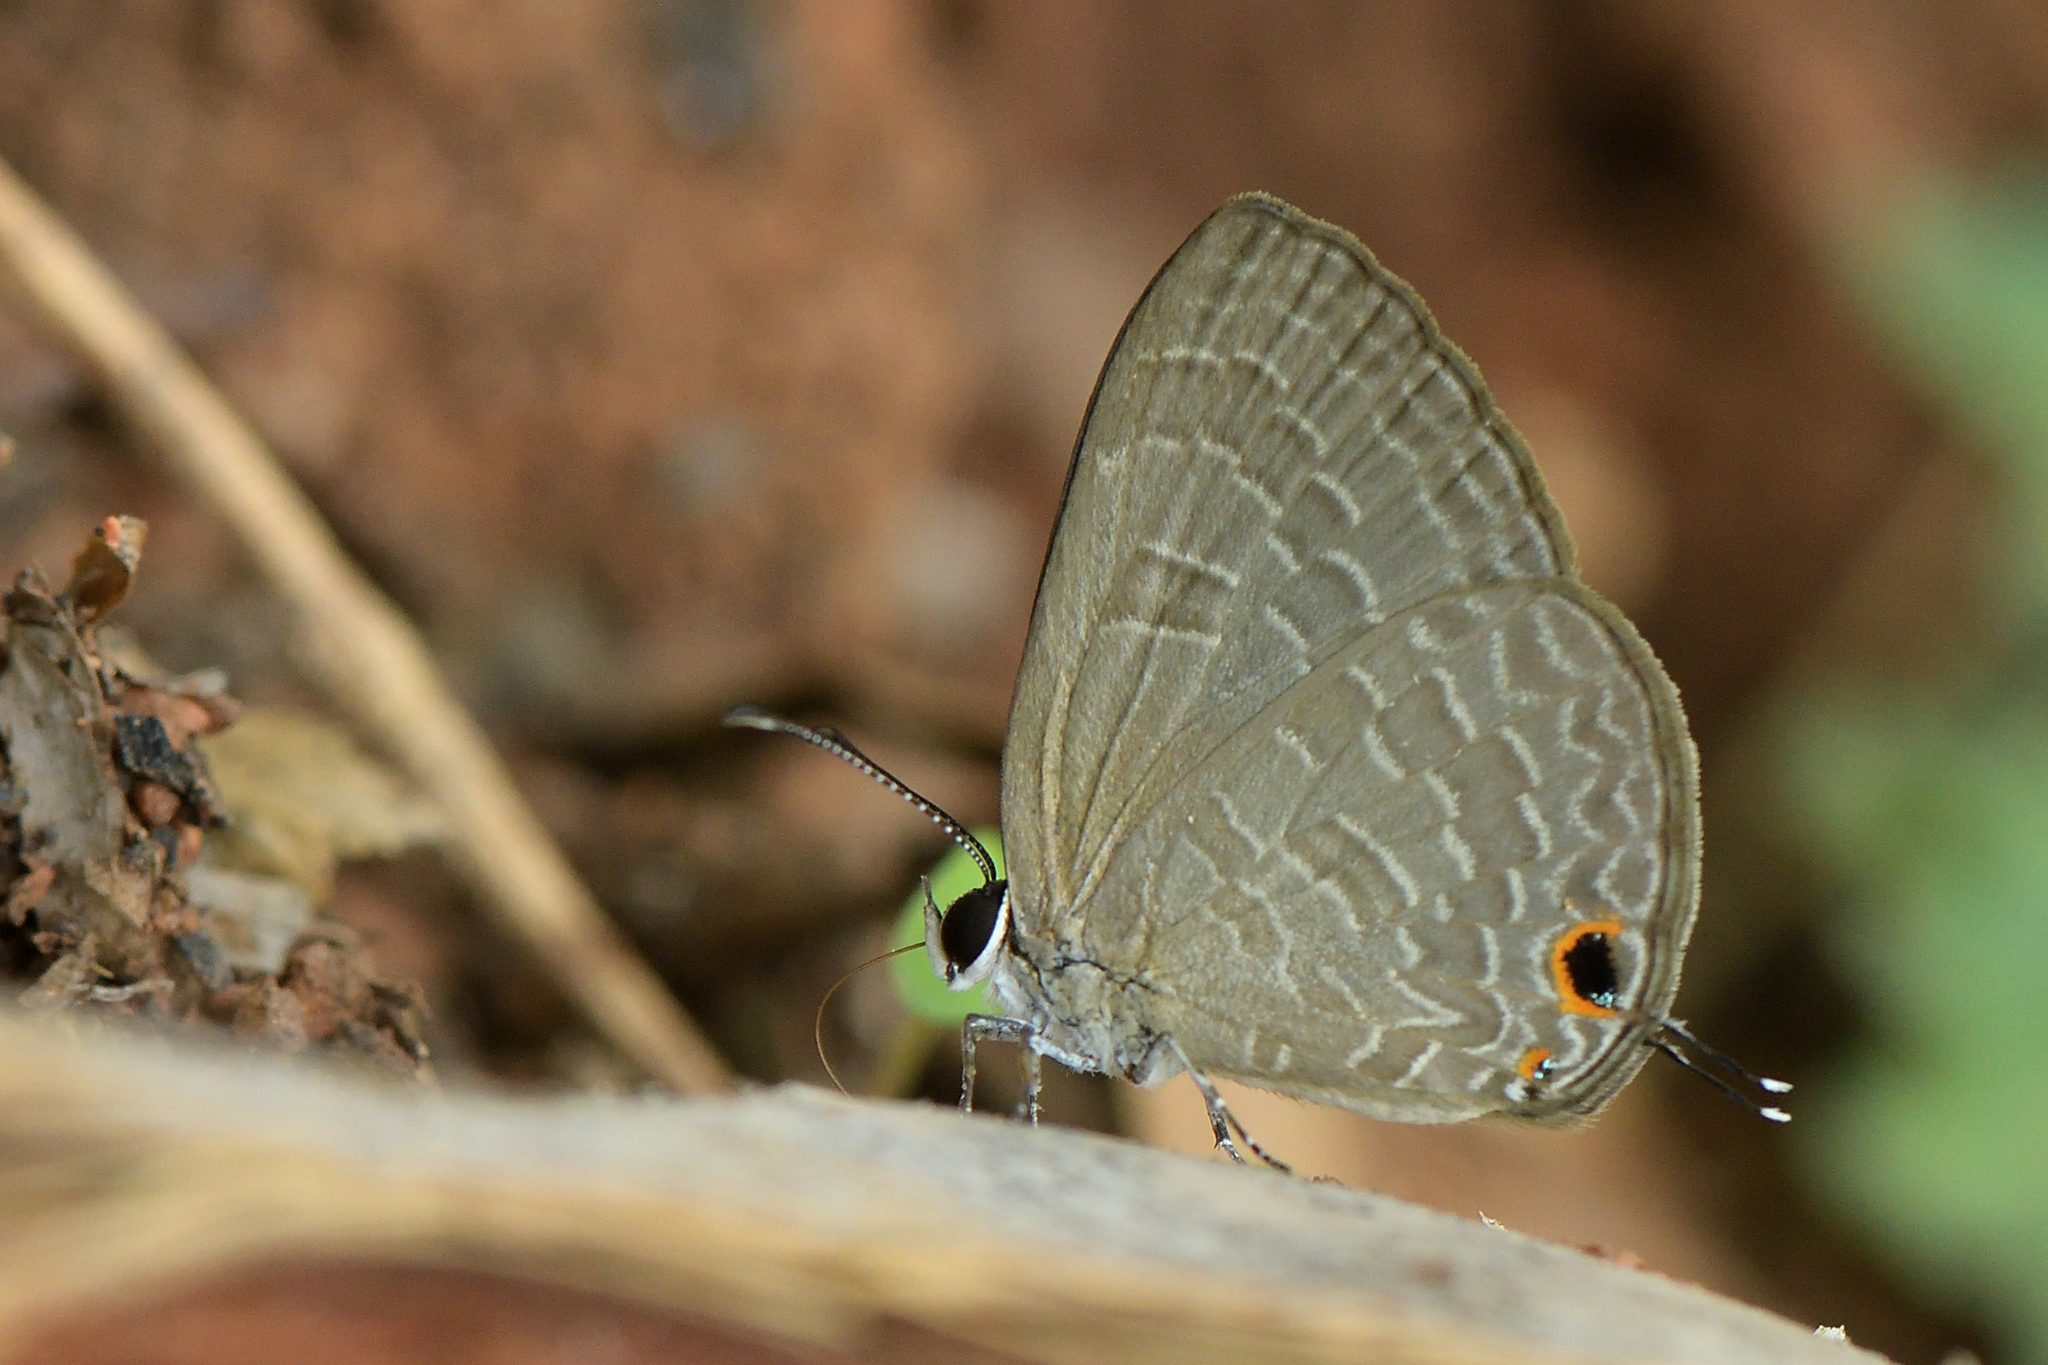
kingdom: Animalia
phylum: Arthropoda
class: Insecta
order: Lepidoptera
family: Lycaenidae
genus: Jamides
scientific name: Jamides bochus
